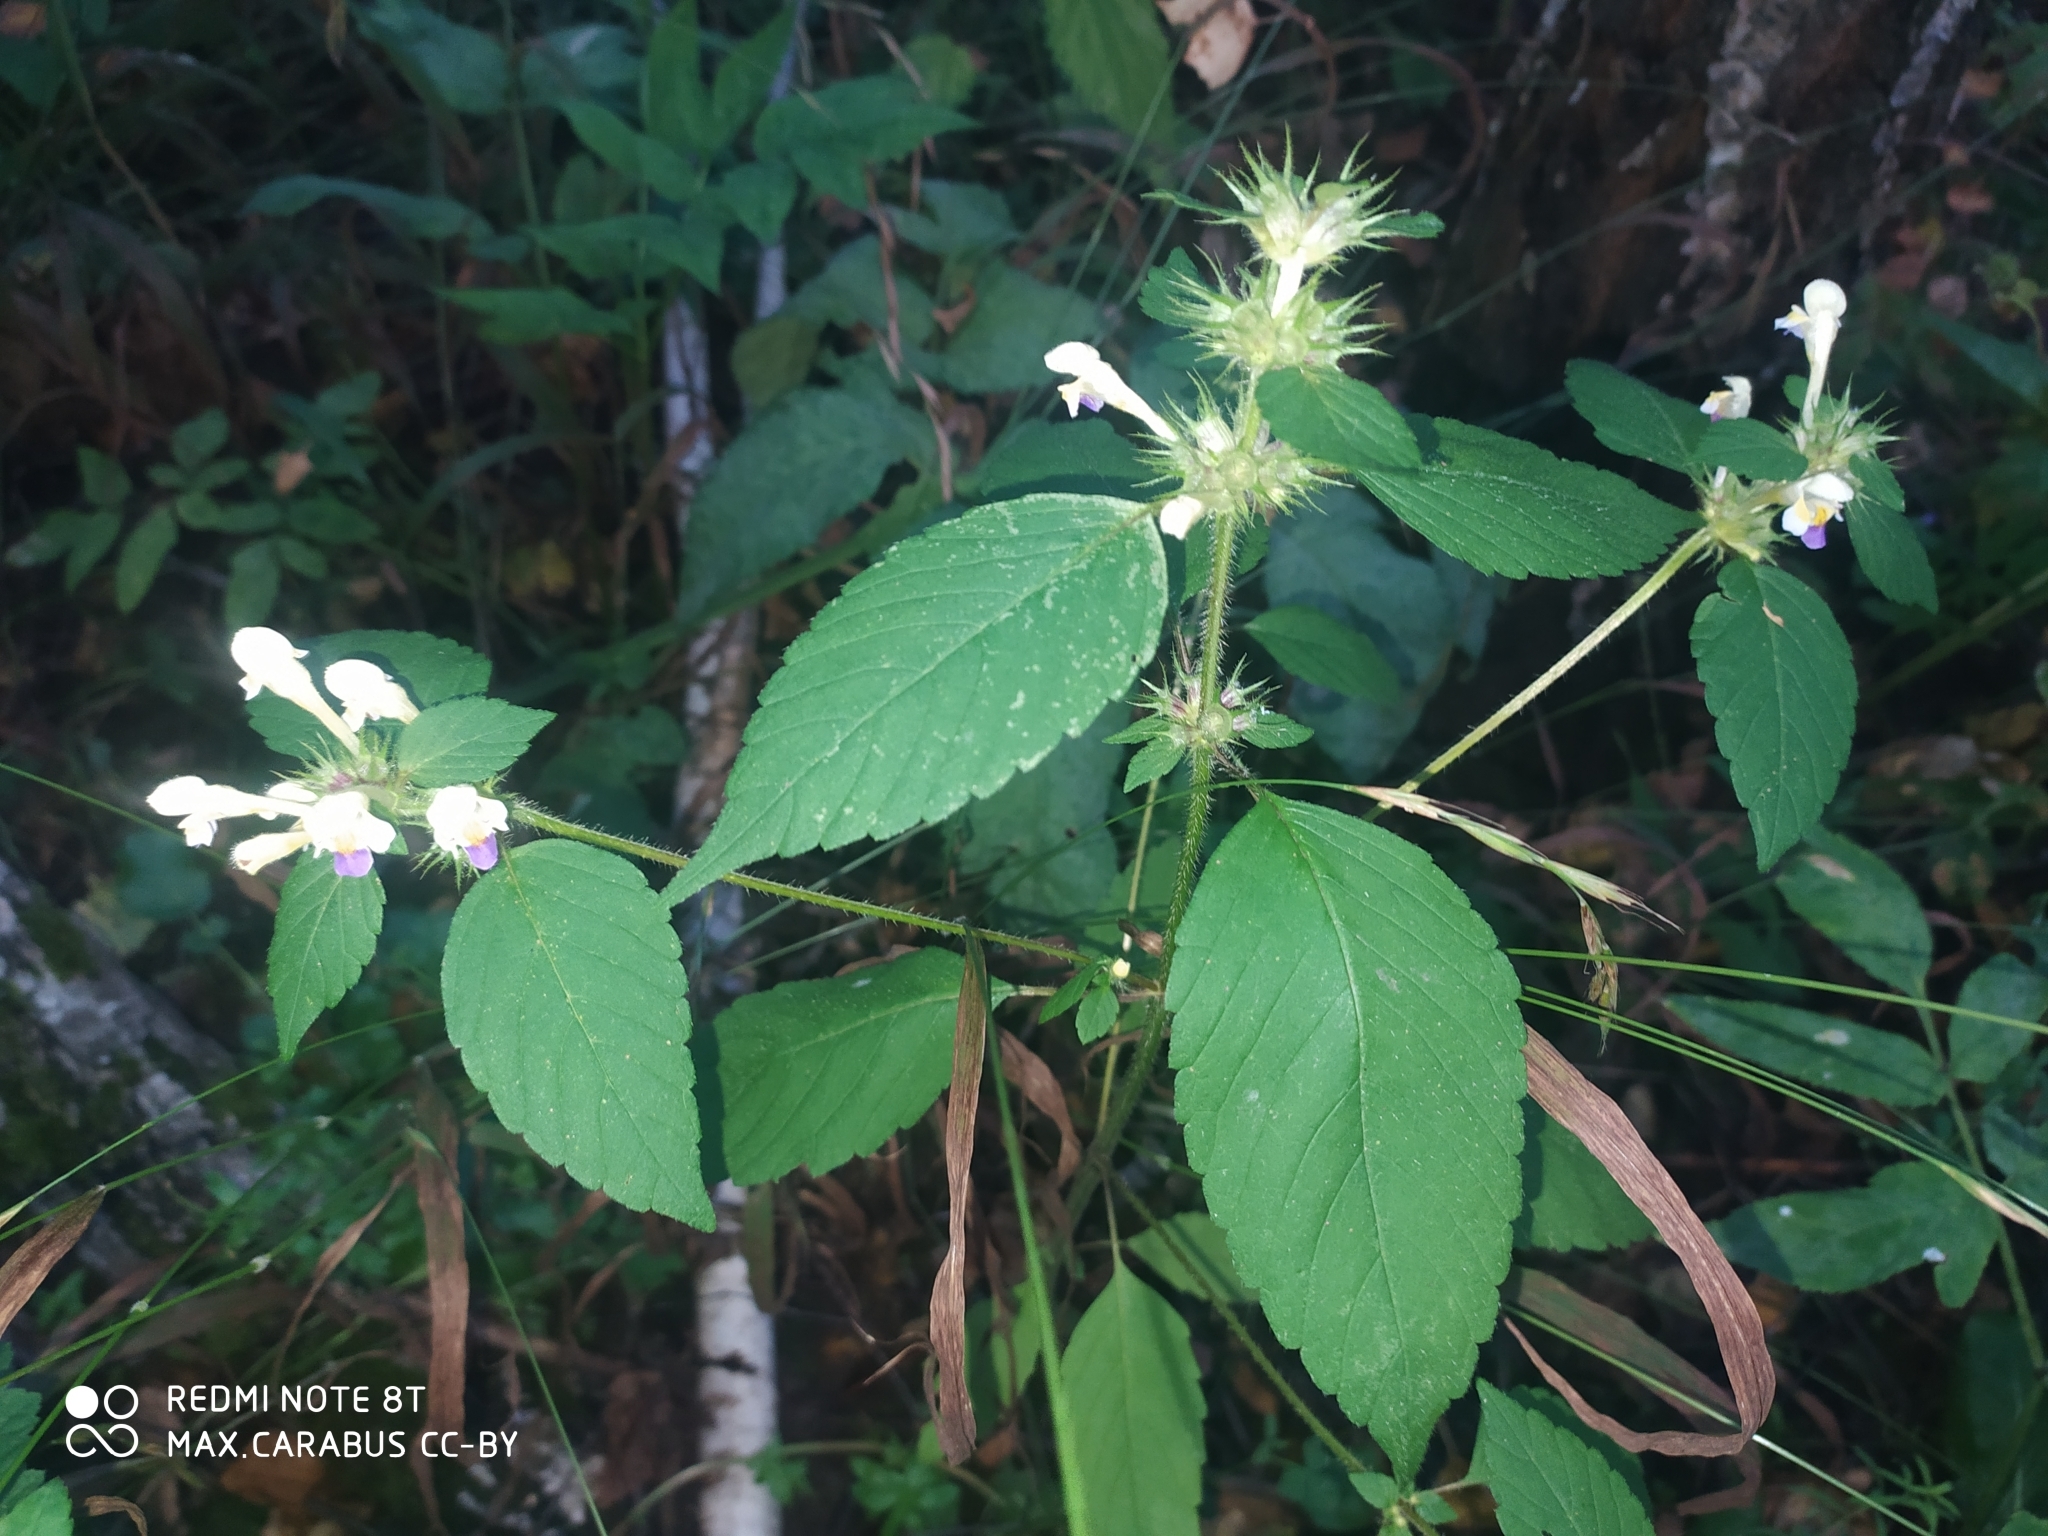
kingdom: Plantae
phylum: Tracheophyta
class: Magnoliopsida
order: Lamiales
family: Lamiaceae
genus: Galeopsis
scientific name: Galeopsis speciosa
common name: Large-flowered hemp-nettle
